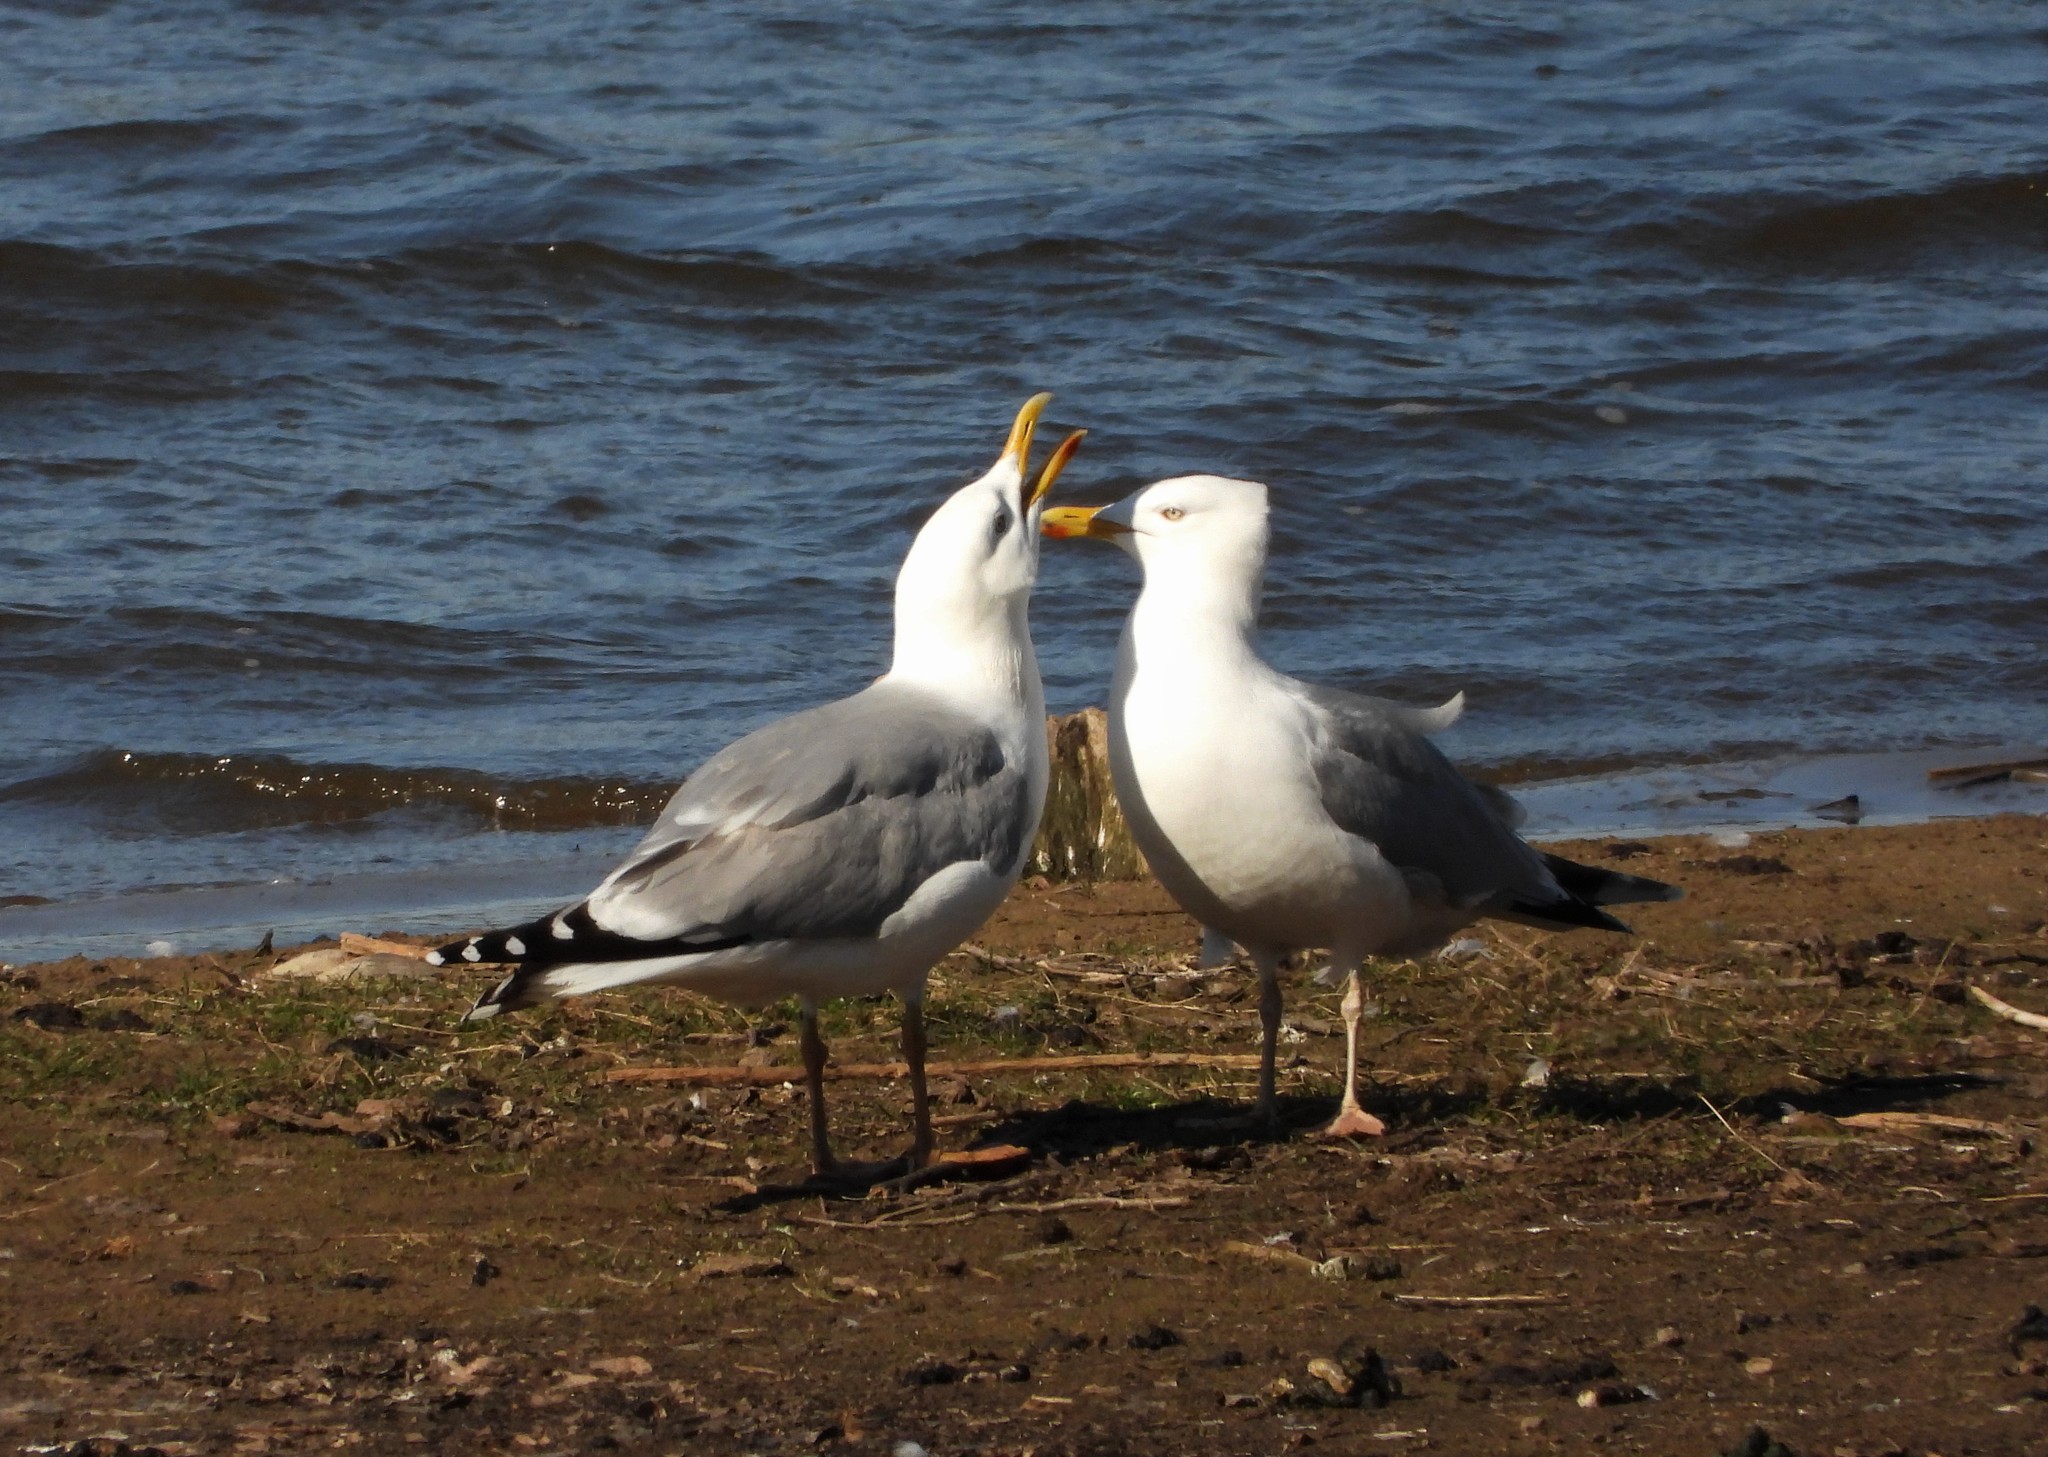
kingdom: Animalia
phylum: Chordata
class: Aves
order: Charadriiformes
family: Laridae
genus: Larus
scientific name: Larus argentatus
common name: Herring gull
